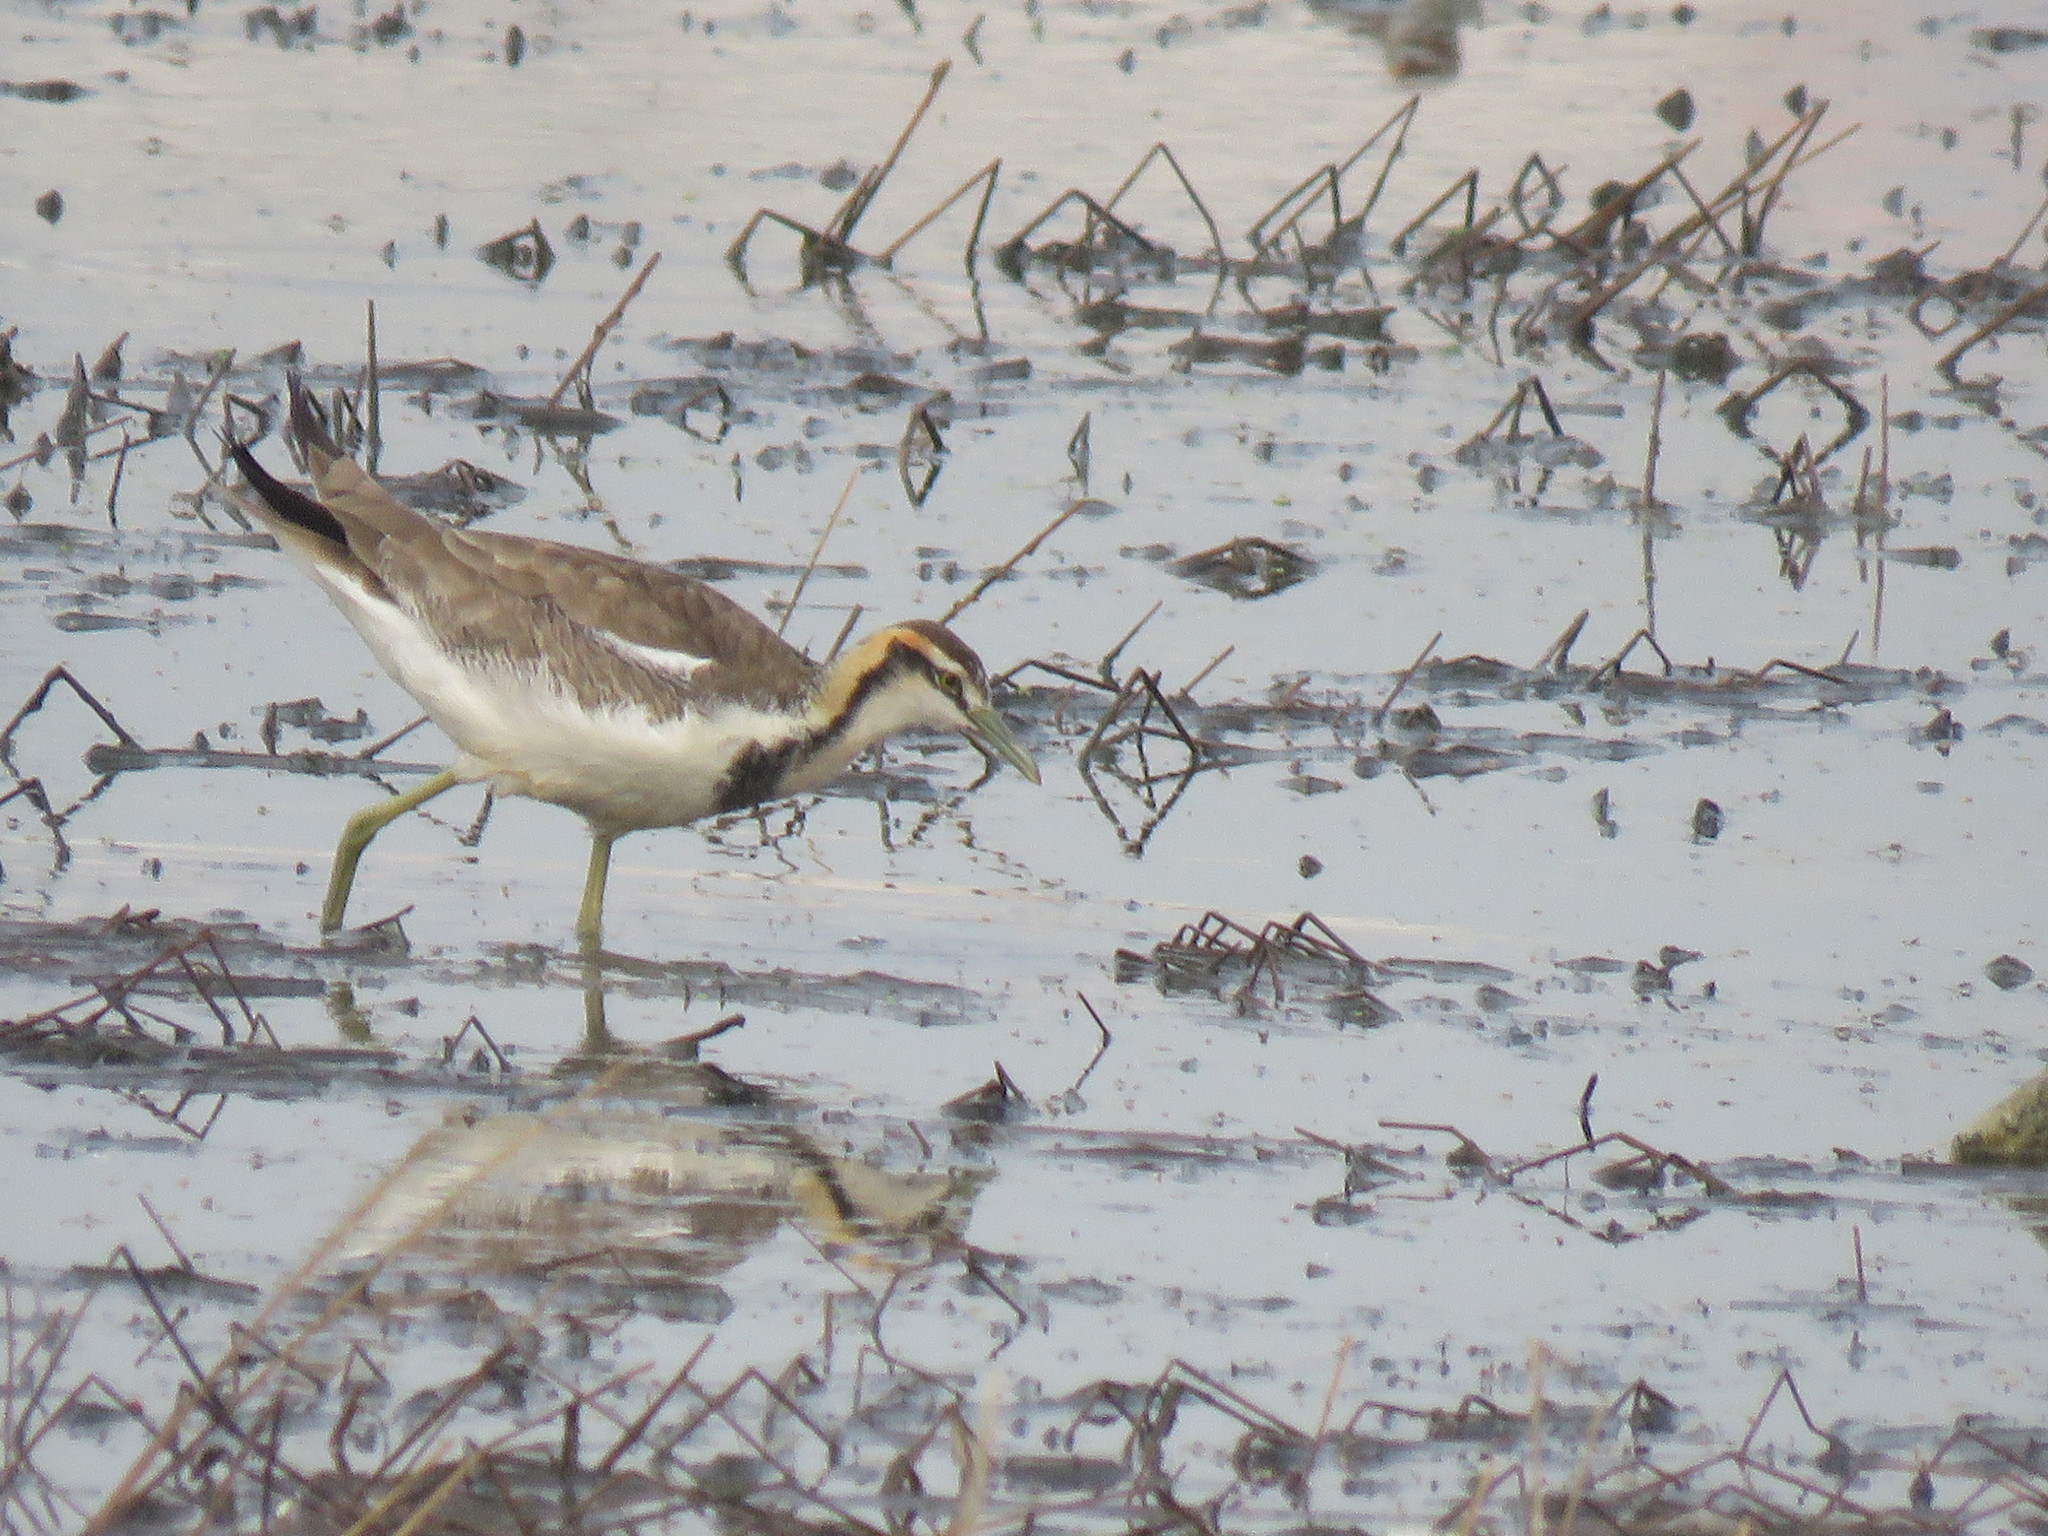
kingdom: Animalia
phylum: Chordata
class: Aves
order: Charadriiformes
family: Jacanidae
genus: Hydrophasianus
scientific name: Hydrophasianus chirurgus
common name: Pheasant-tailed jacana
